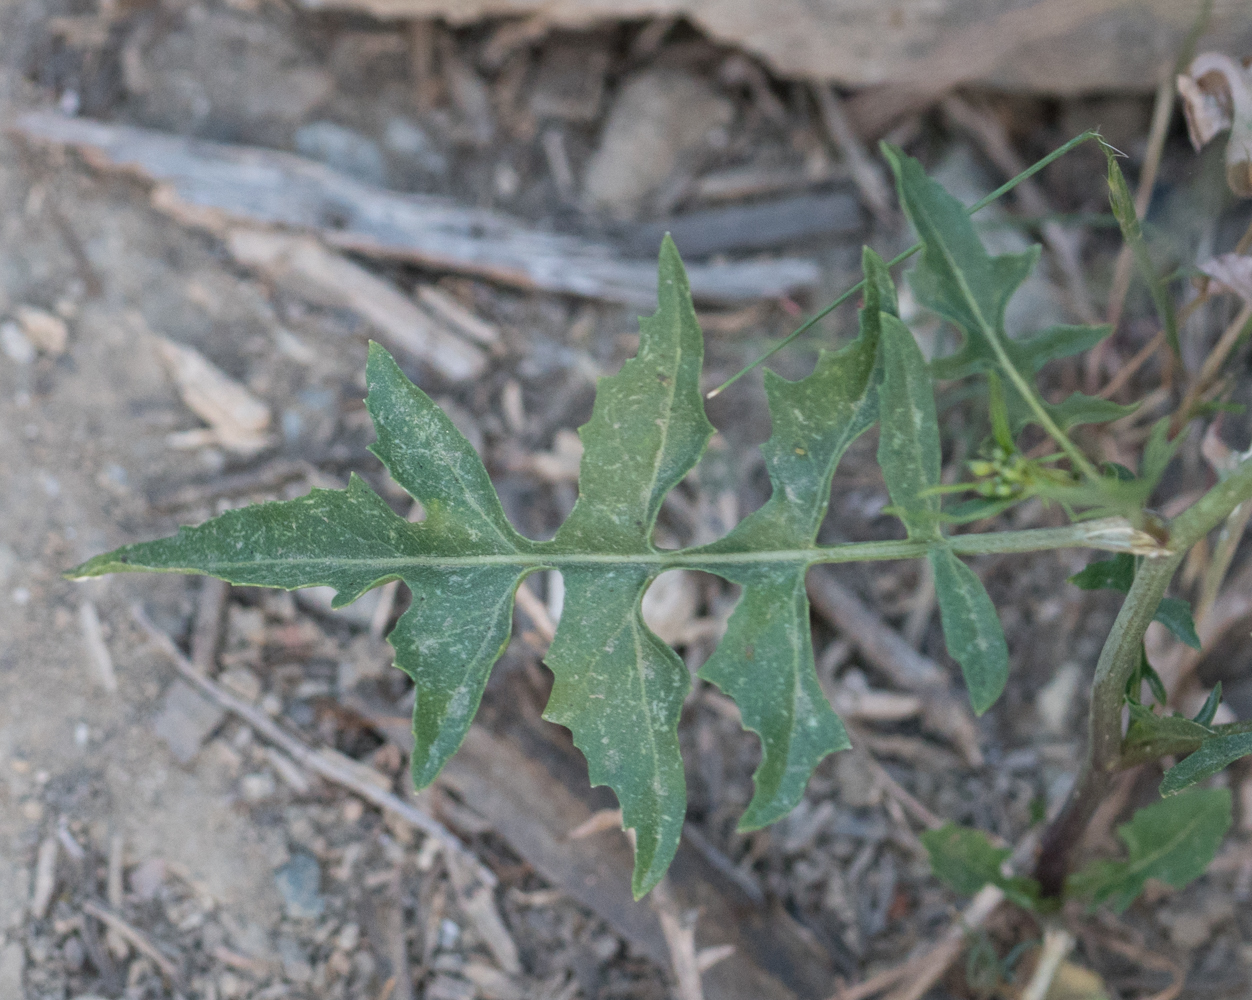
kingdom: Plantae
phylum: Tracheophyta
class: Magnoliopsida
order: Brassicales
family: Brassicaceae
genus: Sisymbrium
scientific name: Sisymbrium irio
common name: London rocket
